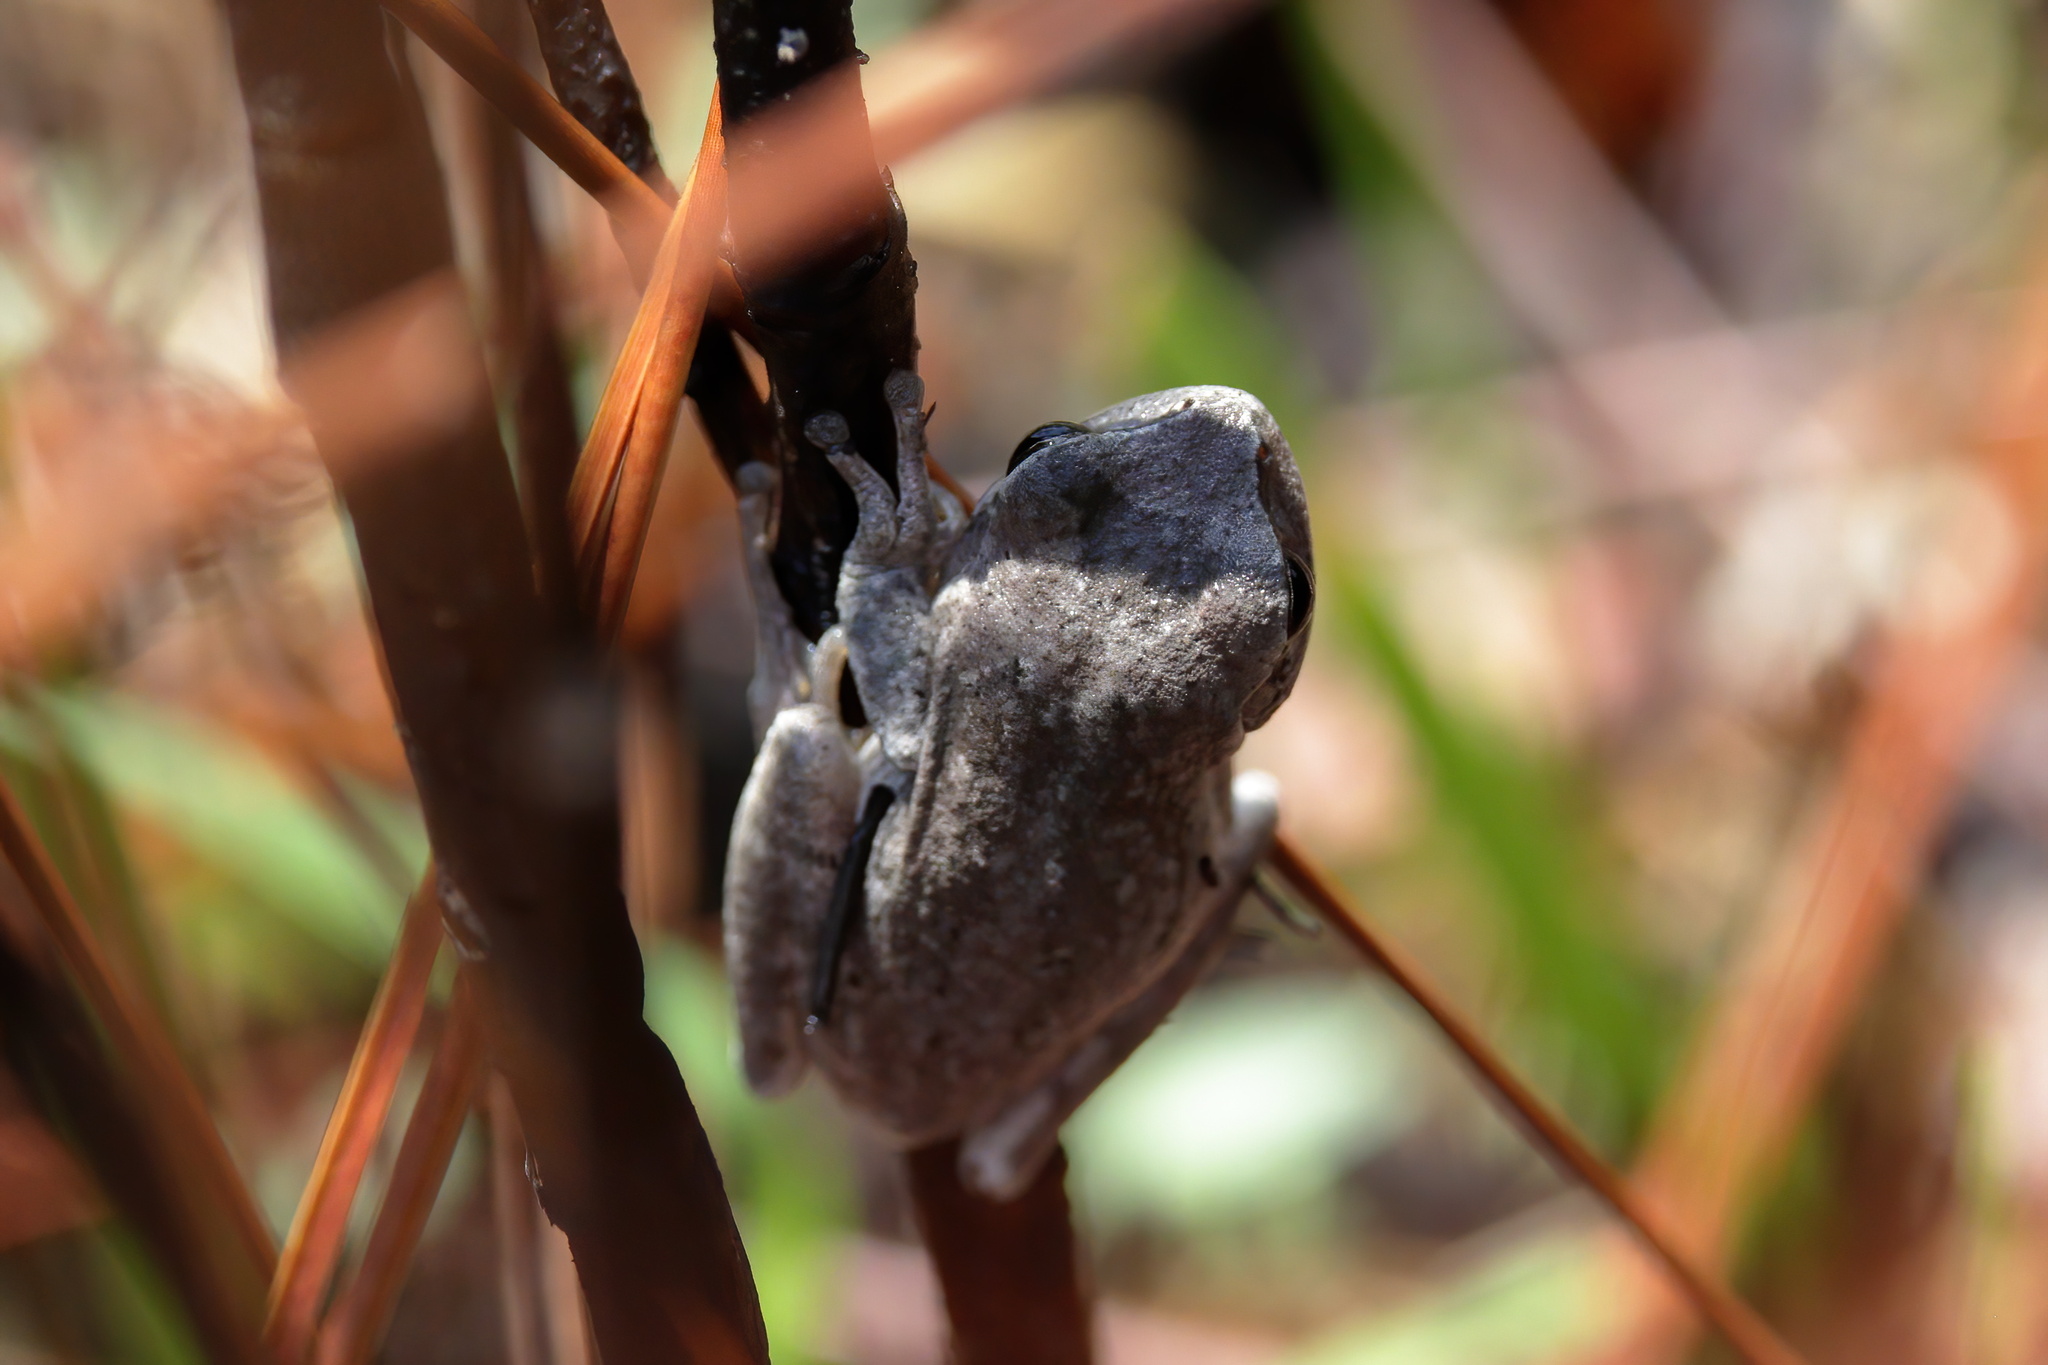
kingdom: Animalia
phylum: Chordata
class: Amphibia
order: Anura
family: Hylidae
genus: Hyla
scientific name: Hyla femoralis
